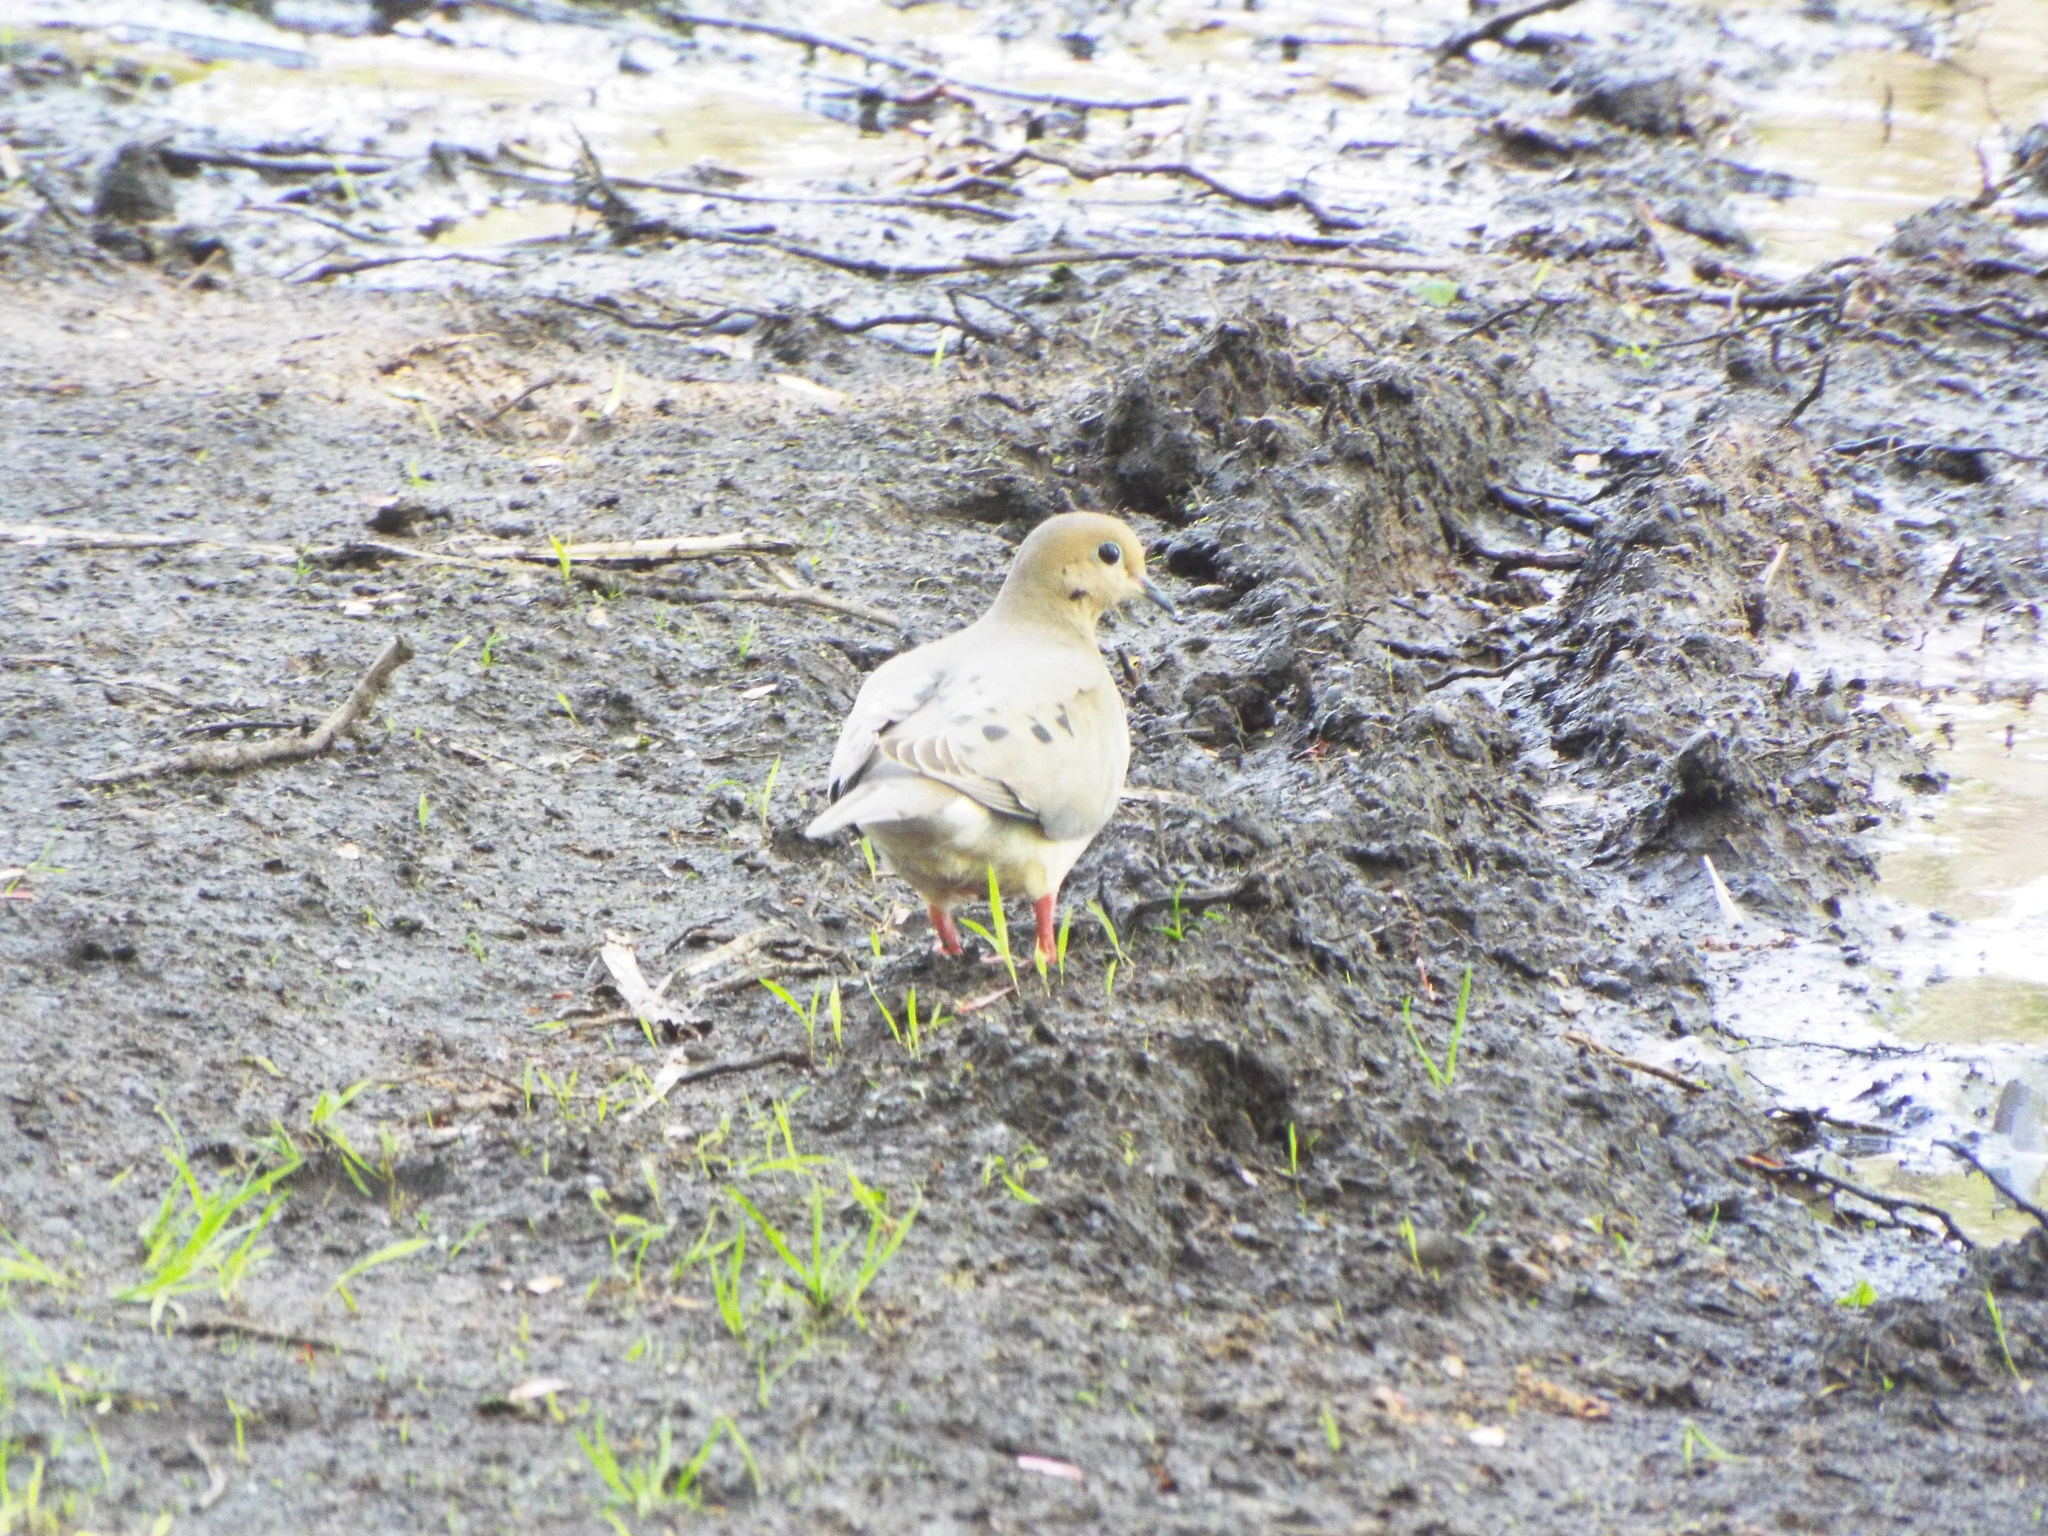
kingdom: Animalia
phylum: Chordata
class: Aves
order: Columbiformes
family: Columbidae
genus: Zenaida
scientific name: Zenaida macroura
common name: Mourning dove
